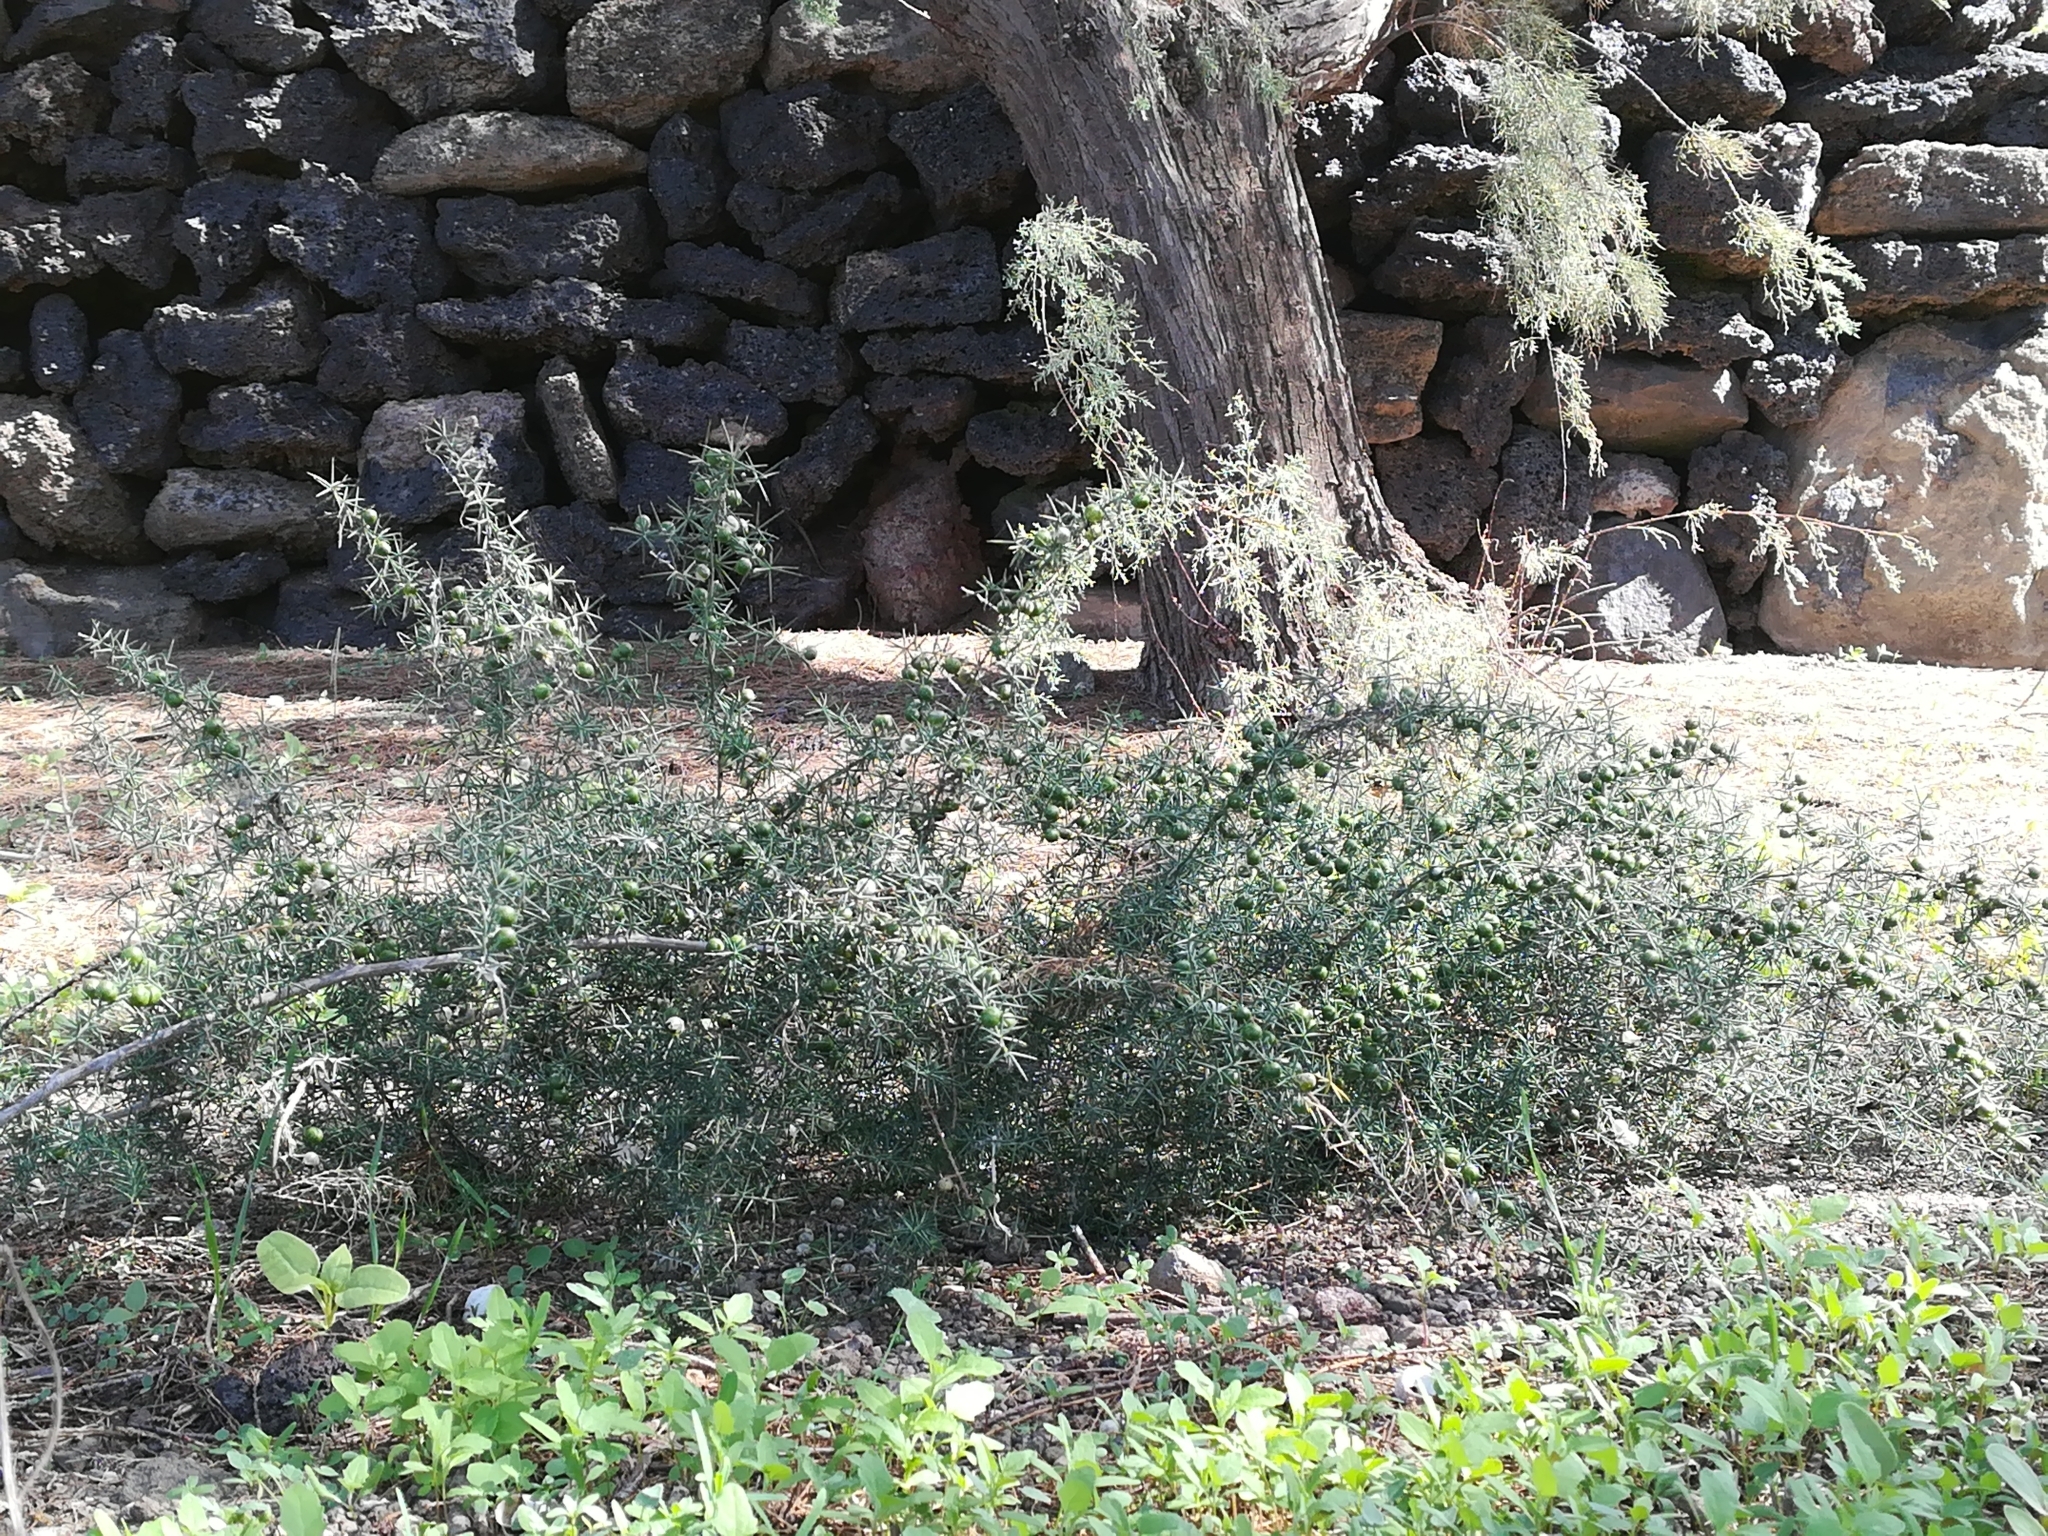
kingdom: Plantae
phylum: Tracheophyta
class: Liliopsida
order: Asparagales
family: Asparagaceae
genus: Asparagus
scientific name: Asparagus acutifolius
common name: Wild asparagus
